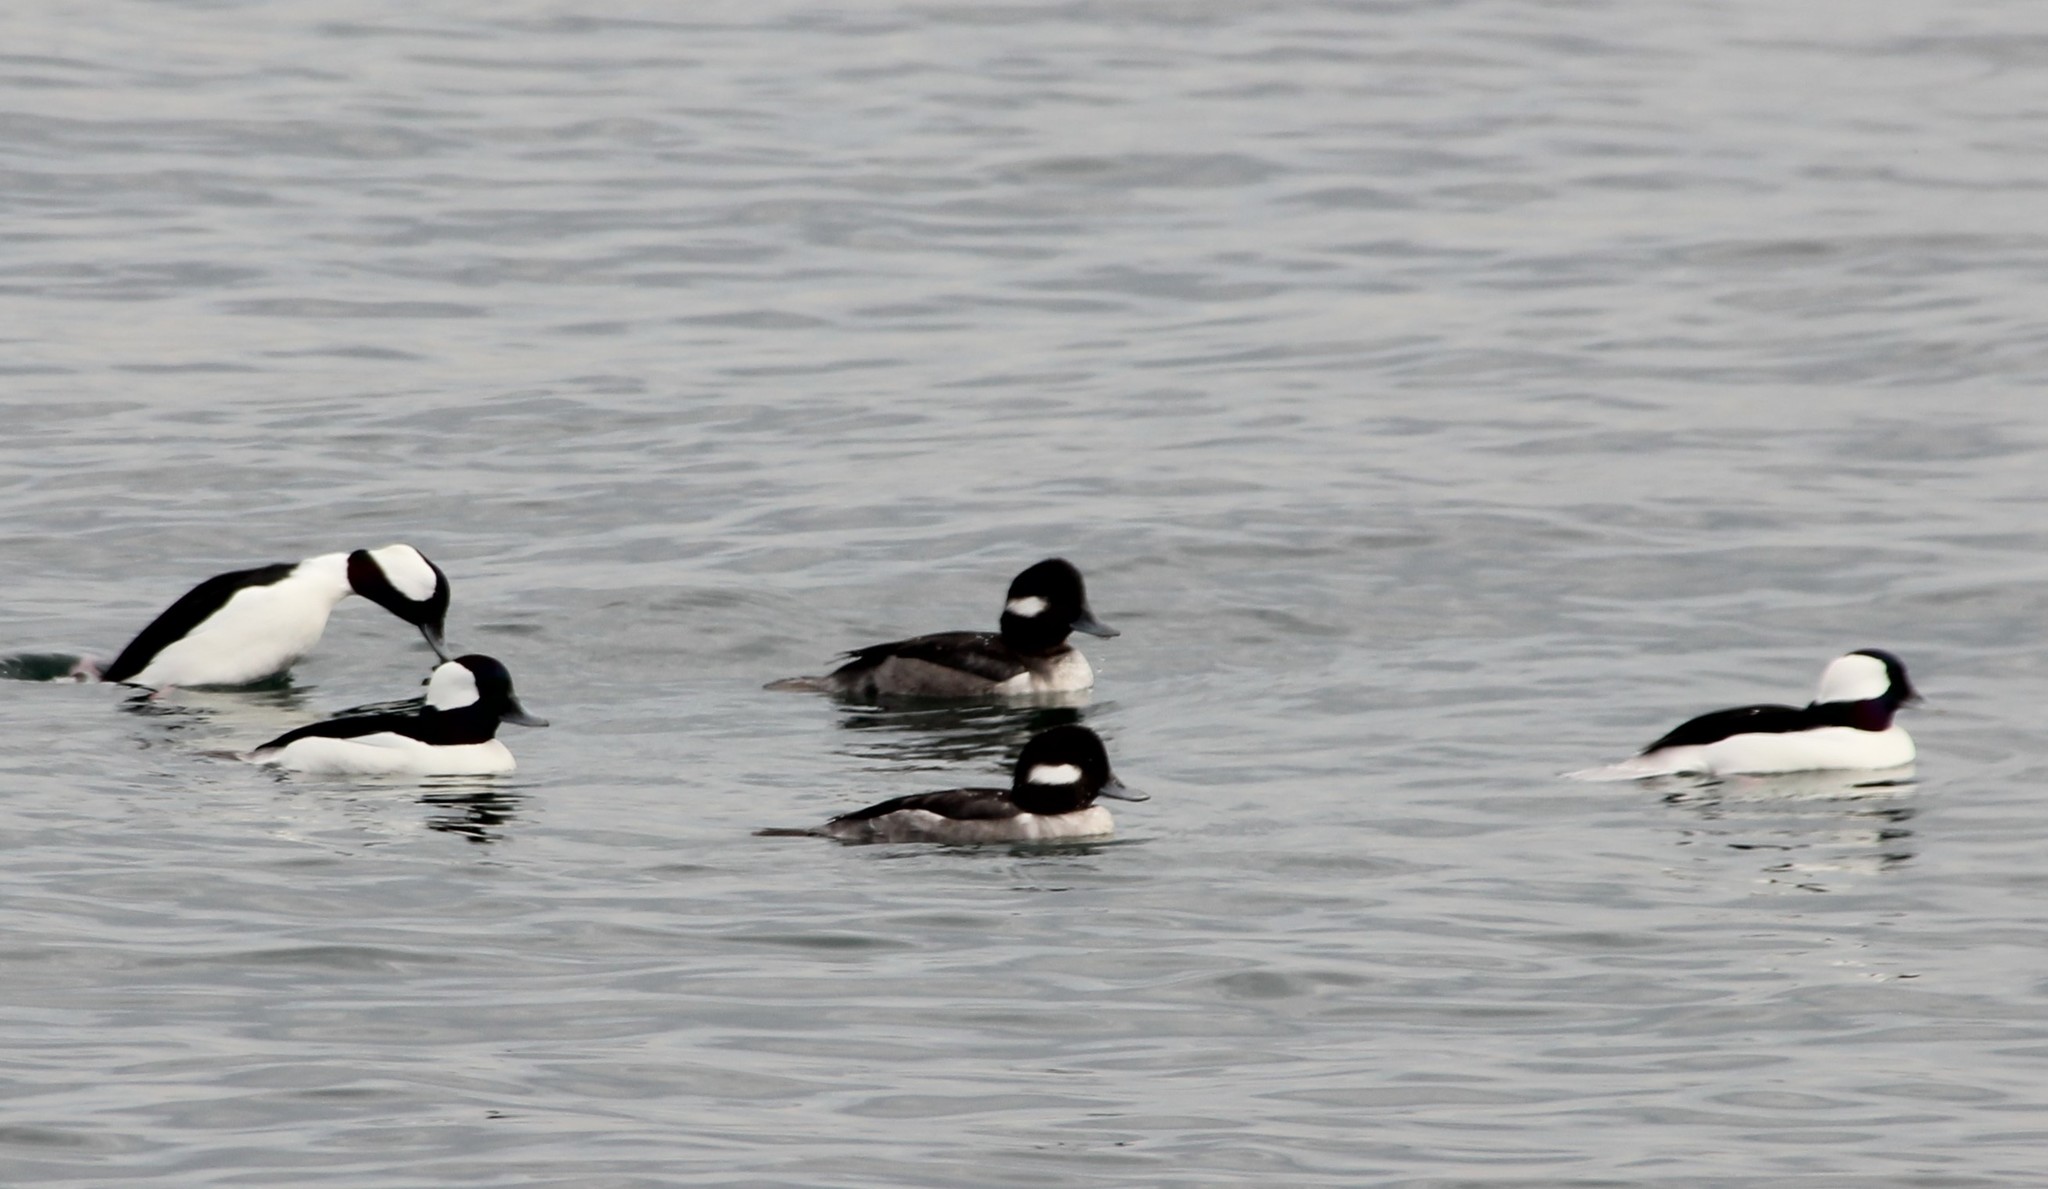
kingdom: Animalia
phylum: Chordata
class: Aves
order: Anseriformes
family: Anatidae
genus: Bucephala
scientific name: Bucephala albeola
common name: Bufflehead
